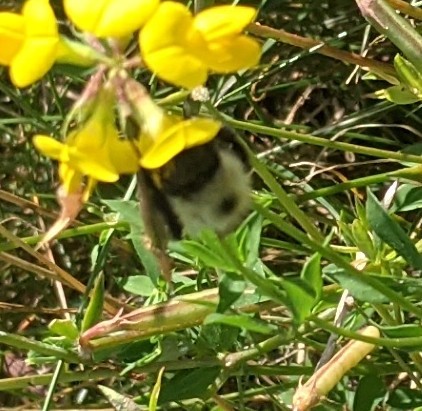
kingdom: Animalia
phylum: Arthropoda
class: Insecta
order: Hymenoptera
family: Apidae
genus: Pyrobombus
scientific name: Pyrobombus
